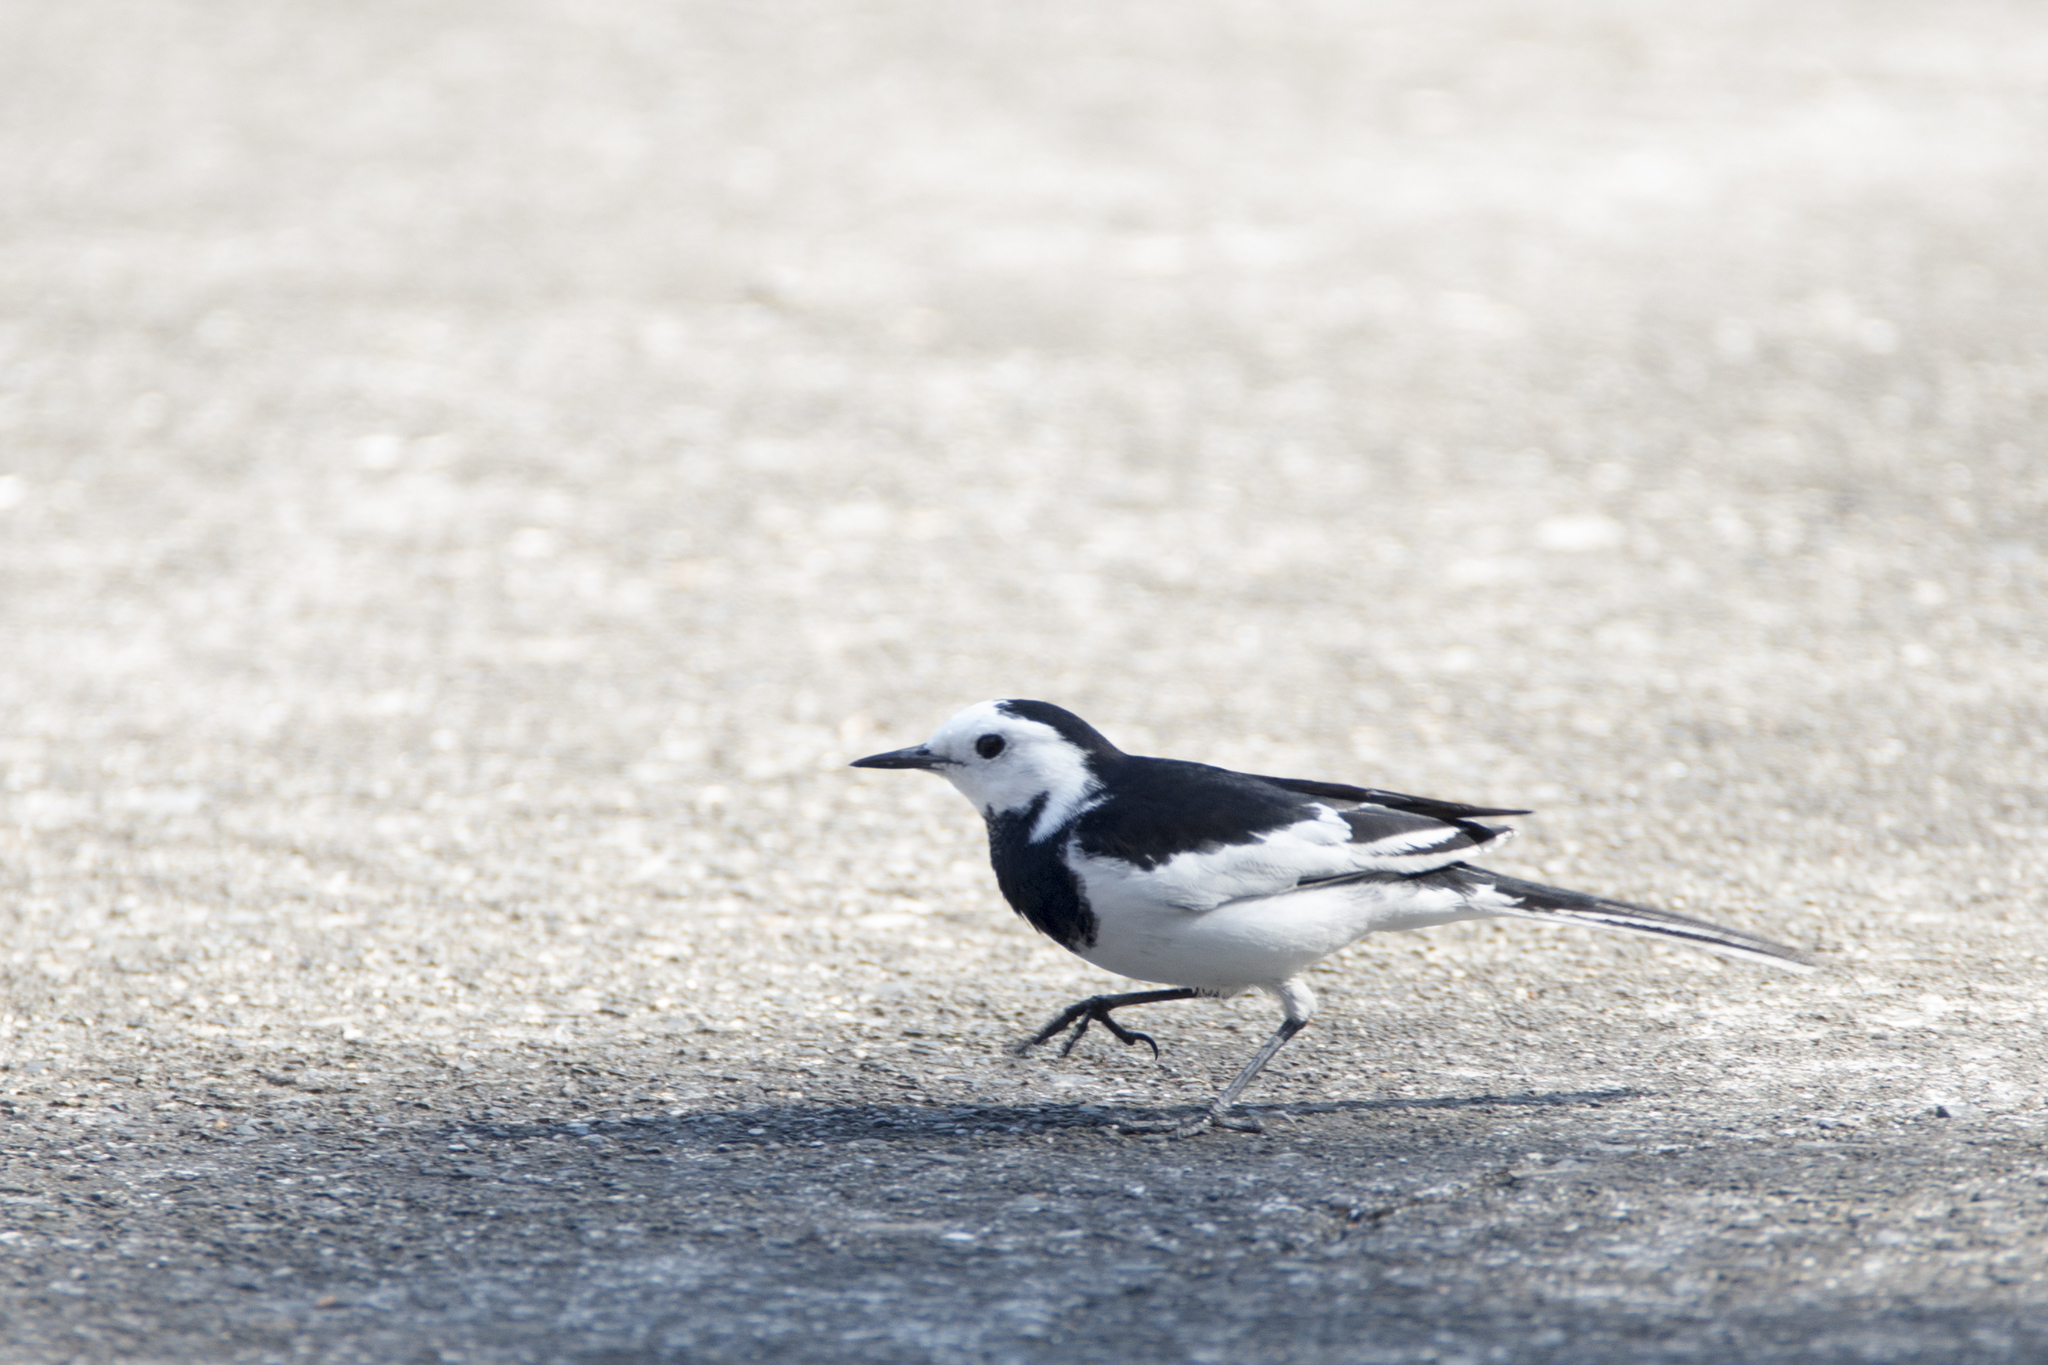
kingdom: Animalia
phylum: Chordata
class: Aves
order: Passeriformes
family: Motacillidae
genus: Motacilla
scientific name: Motacilla alba
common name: White wagtail
